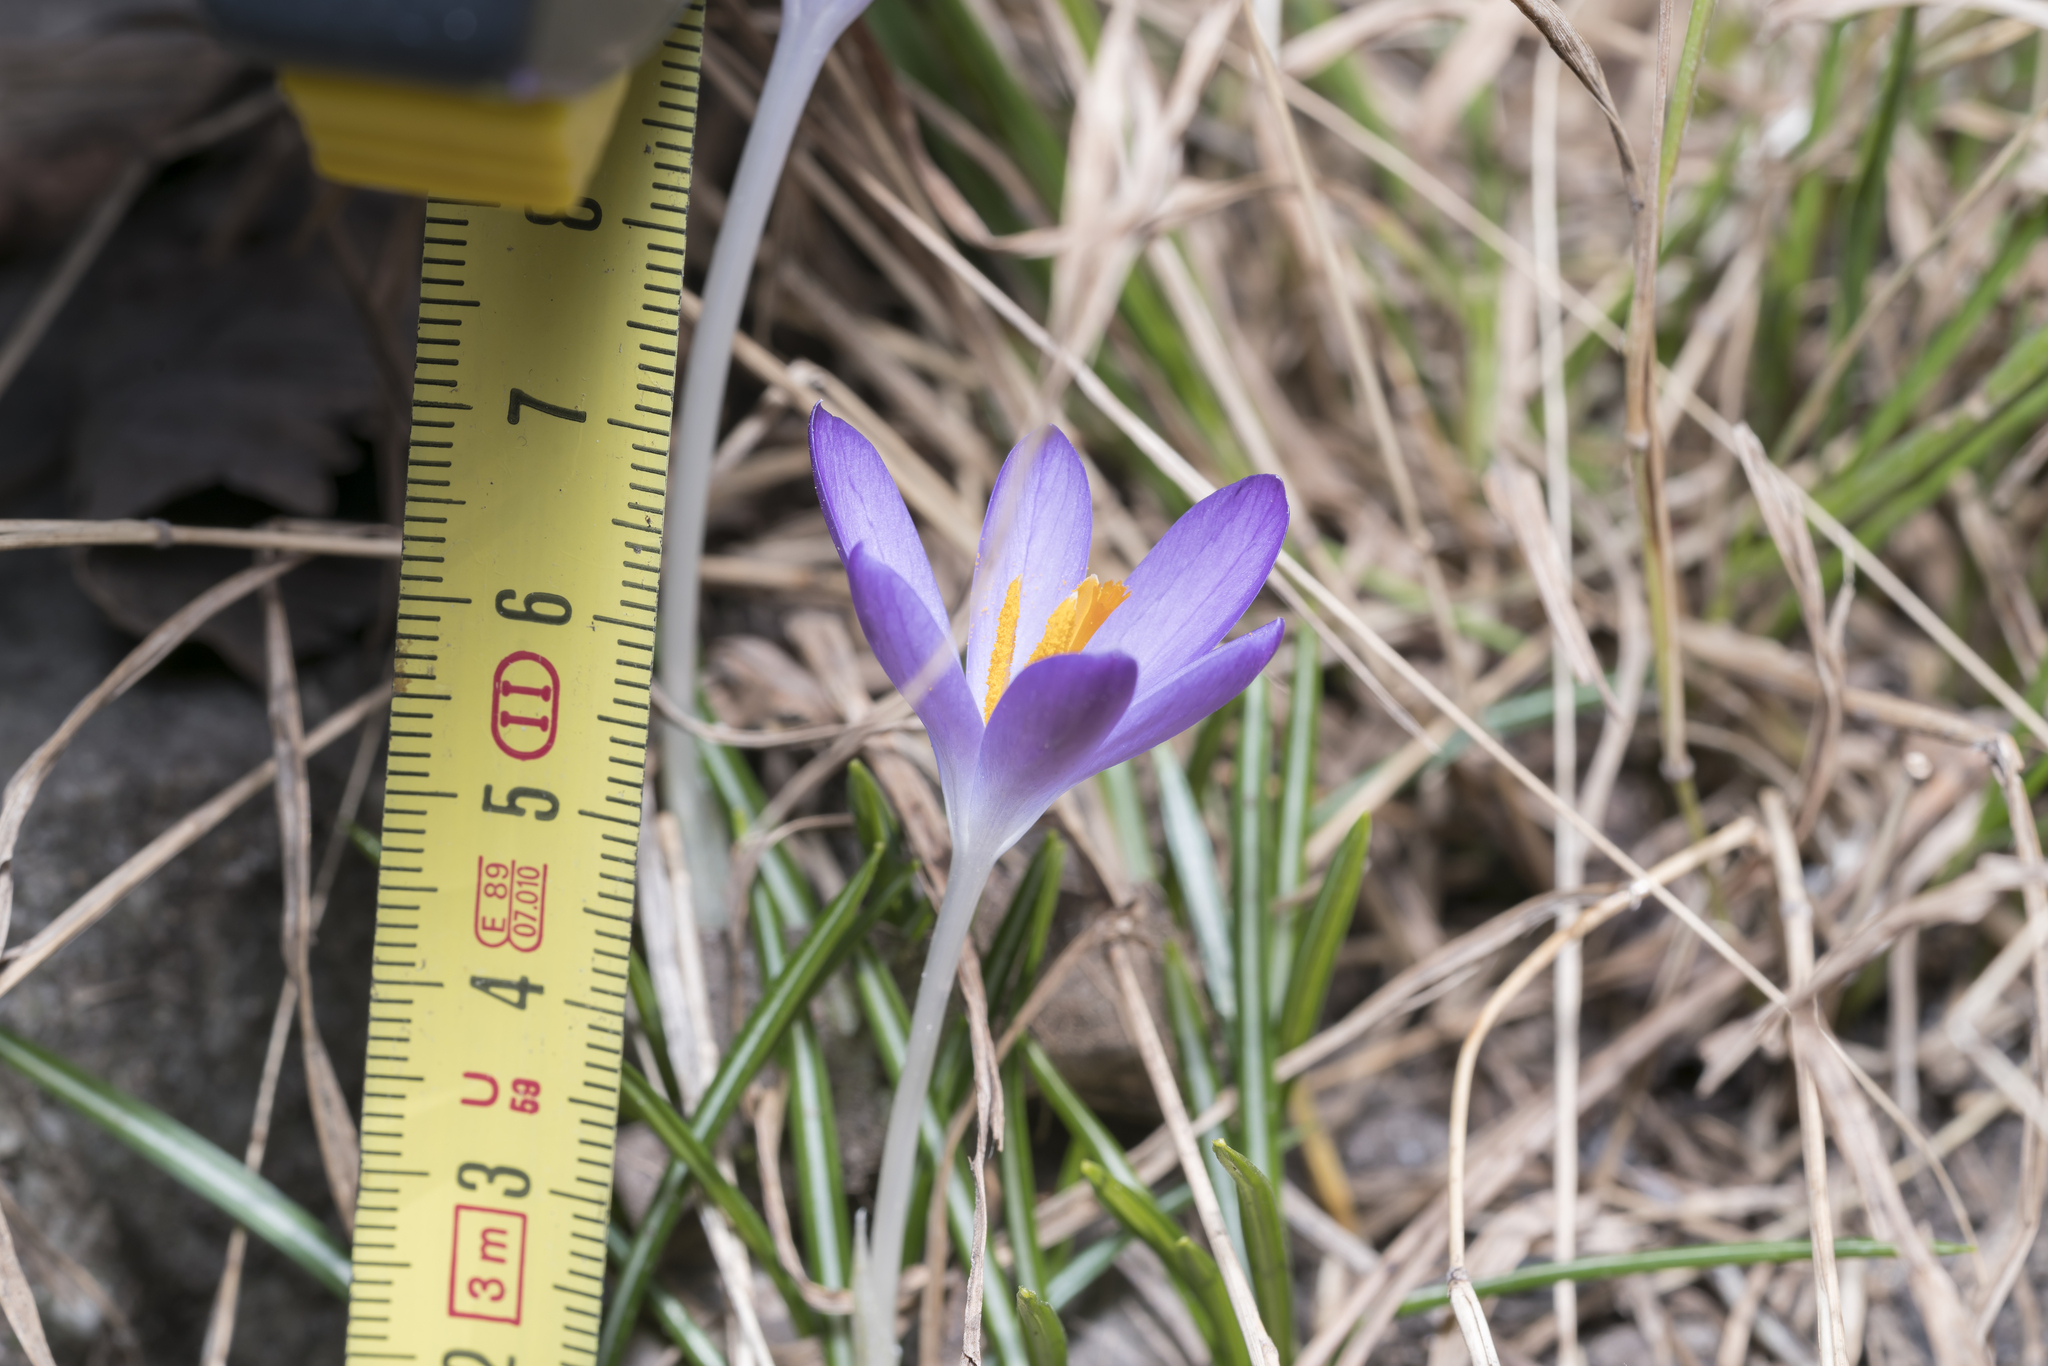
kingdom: Plantae
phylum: Tracheophyta
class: Liliopsida
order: Asparagales
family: Iridaceae
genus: Crocus
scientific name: Crocus tommasinianus
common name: Early crocus
